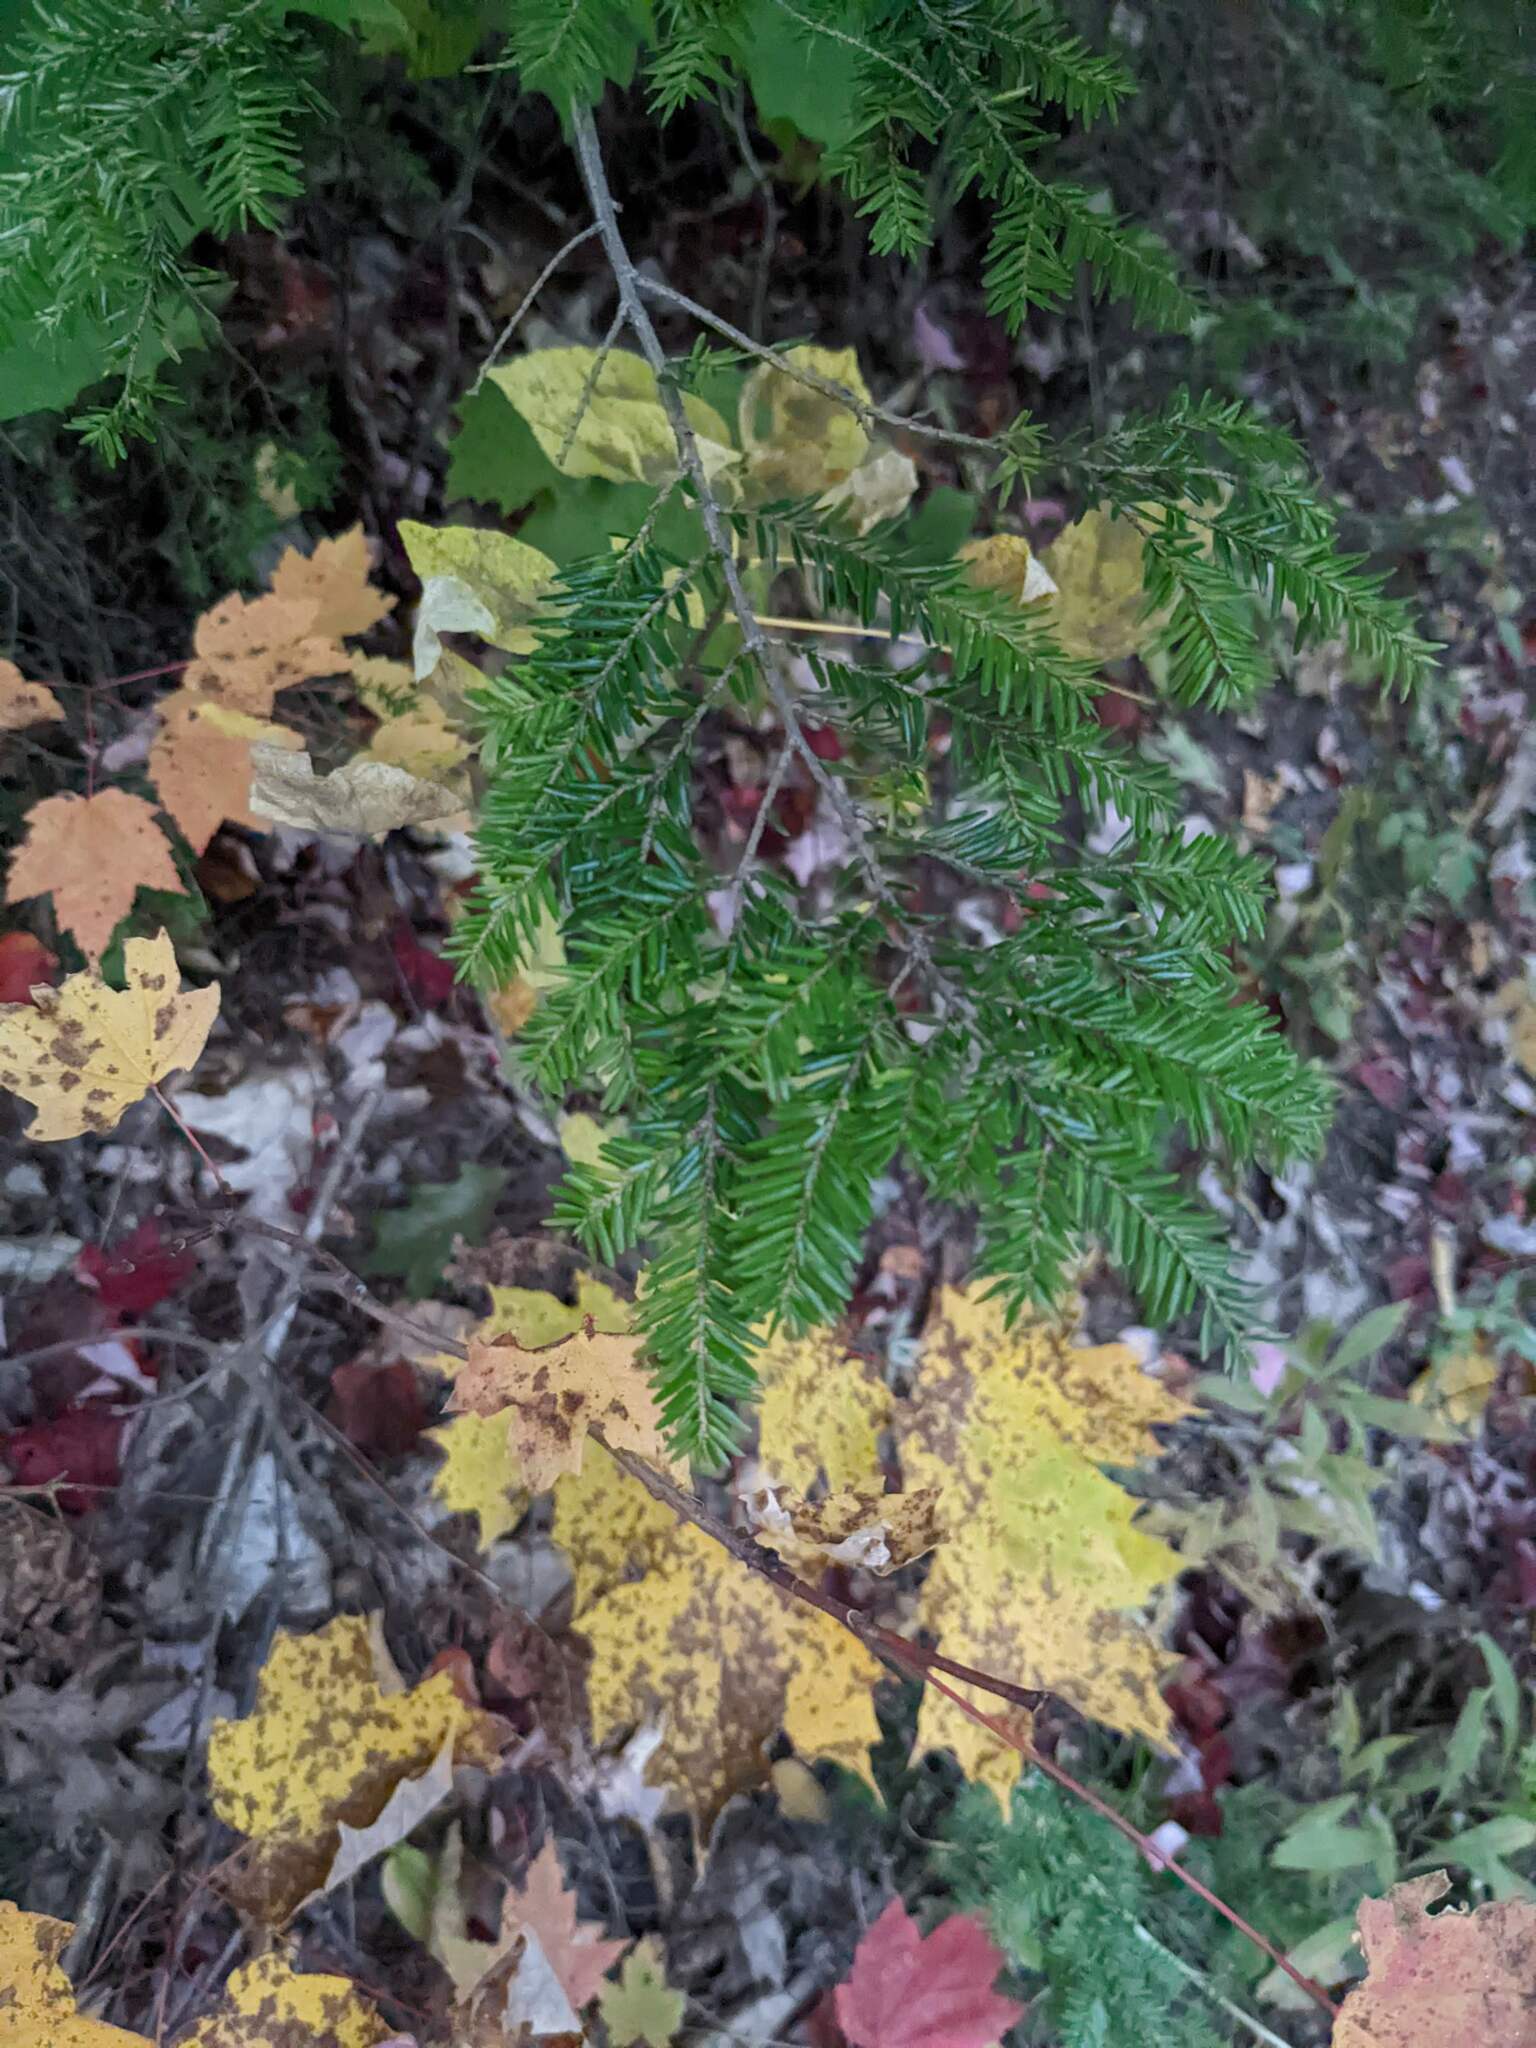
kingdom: Plantae
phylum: Tracheophyta
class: Pinopsida
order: Pinales
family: Pinaceae
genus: Tsuga
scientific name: Tsuga canadensis
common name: Eastern hemlock
